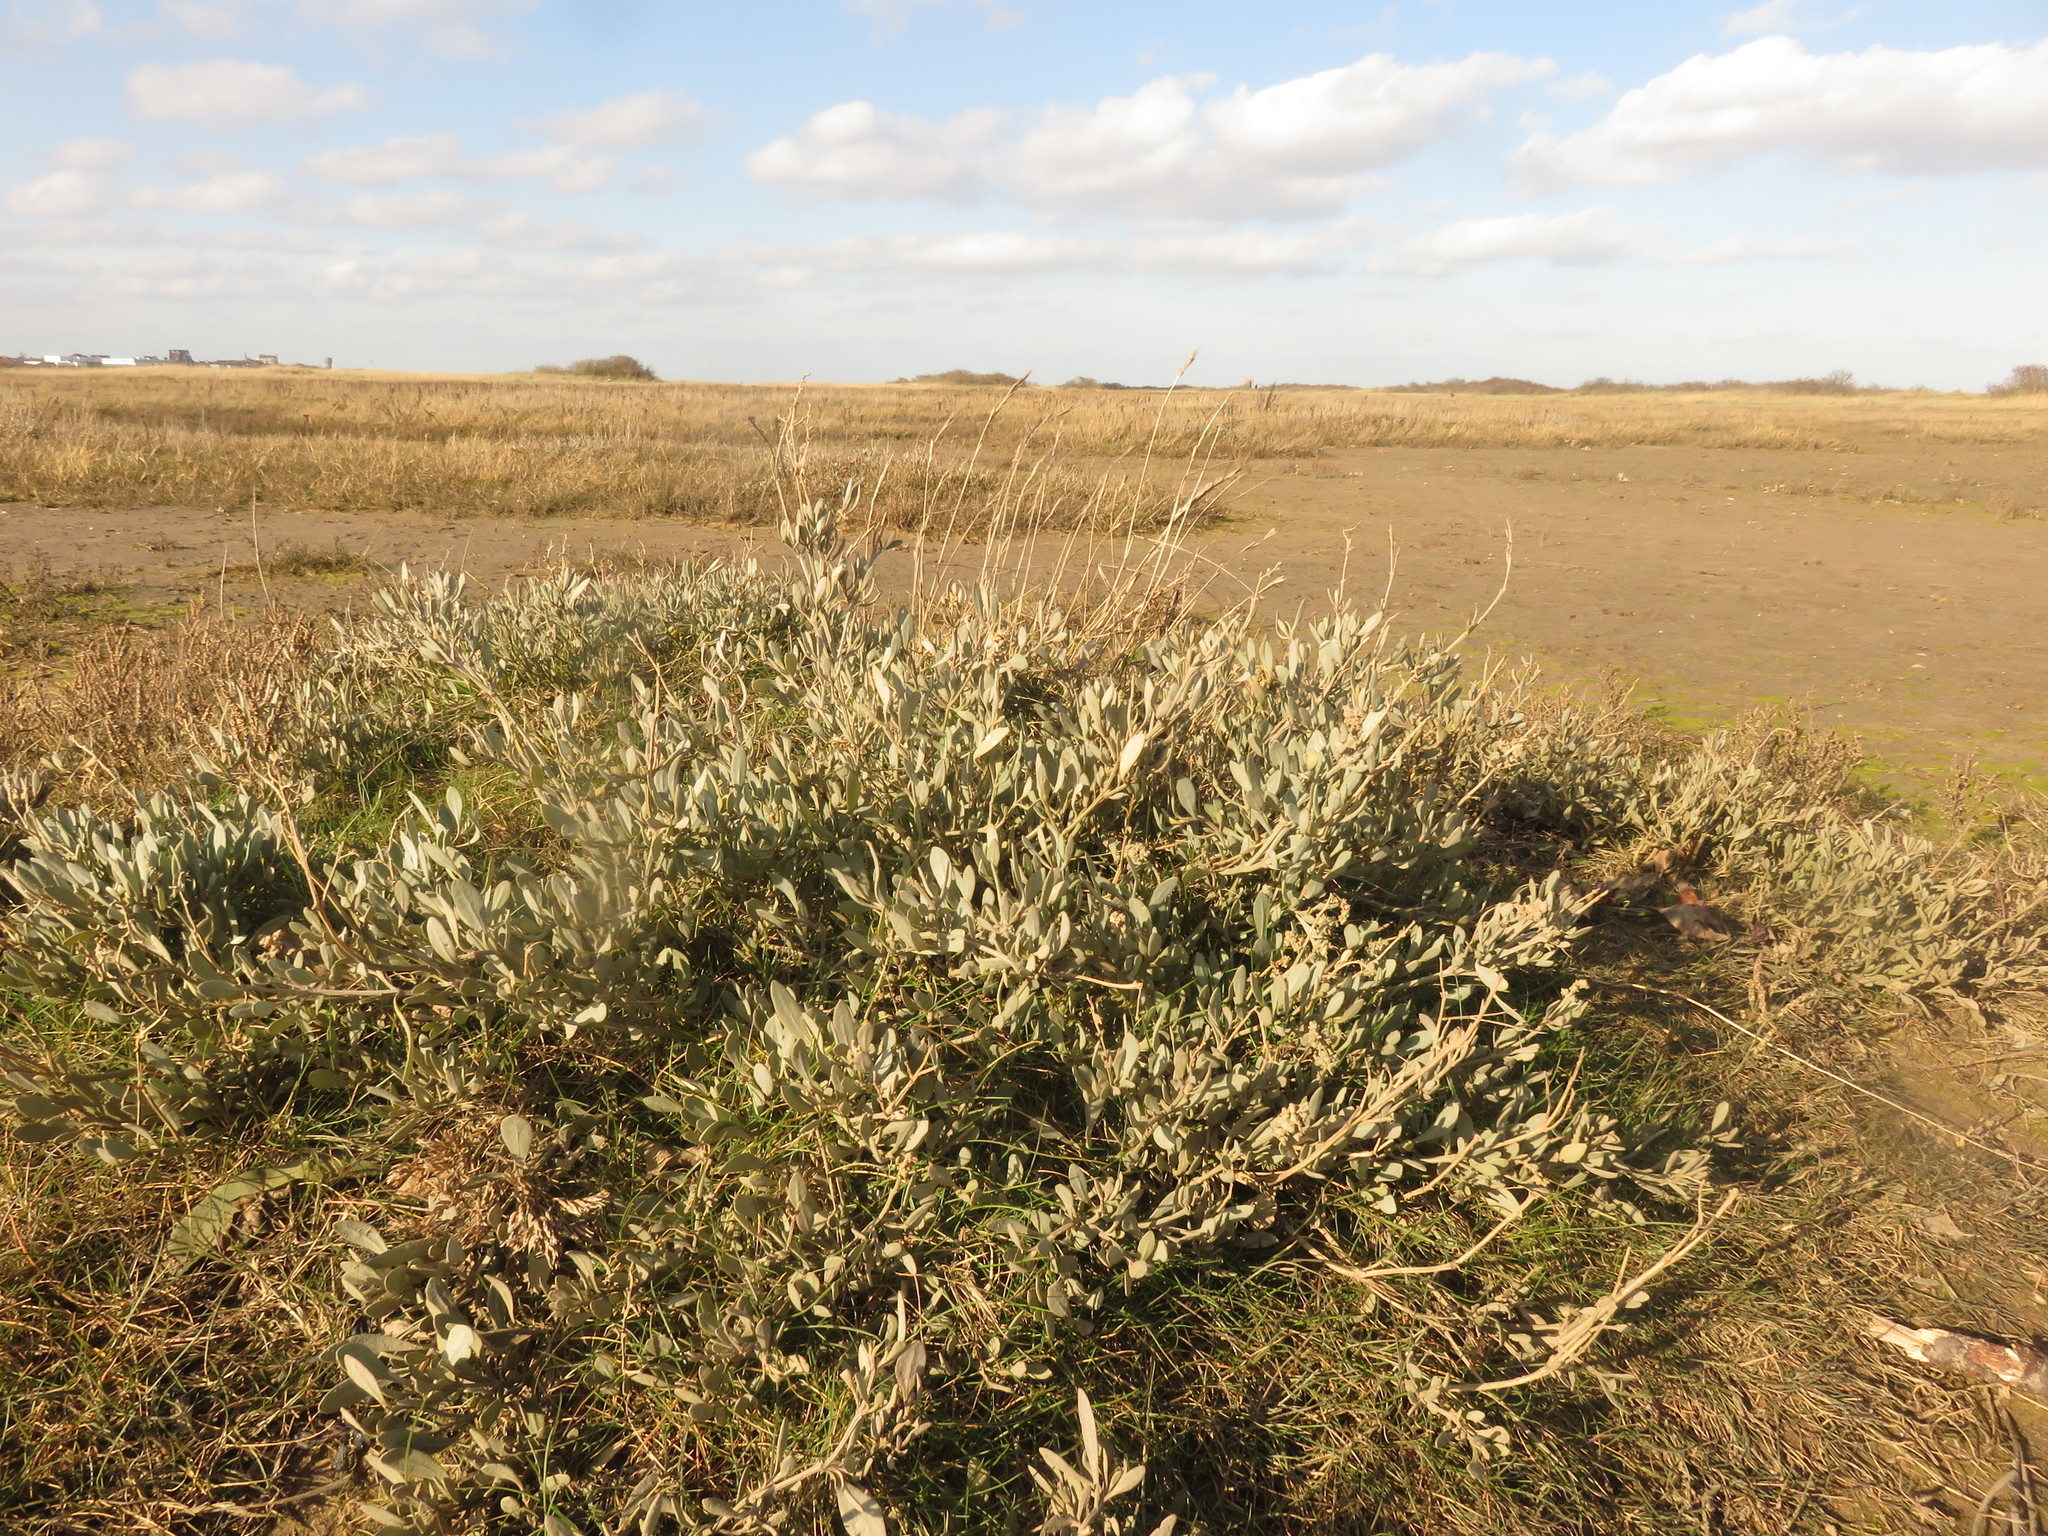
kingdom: Plantae
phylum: Tracheophyta
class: Magnoliopsida
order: Caryophyllales
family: Amaranthaceae
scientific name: Amaranthaceae
